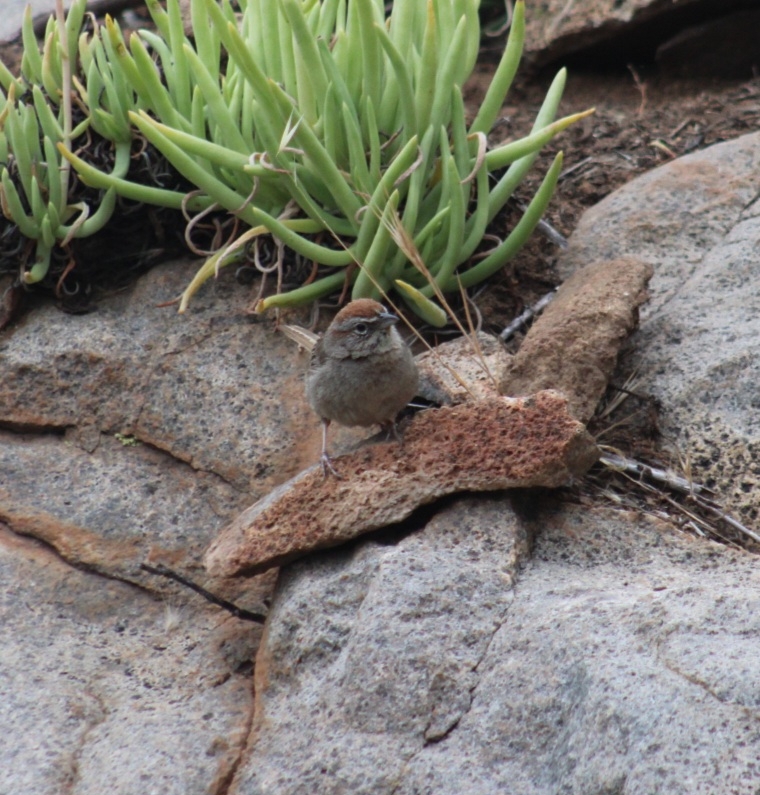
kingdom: Animalia
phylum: Chordata
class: Aves
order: Passeriformes
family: Passerellidae
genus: Aimophila
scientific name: Aimophila ruficeps
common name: Rufous-crowned sparrow
